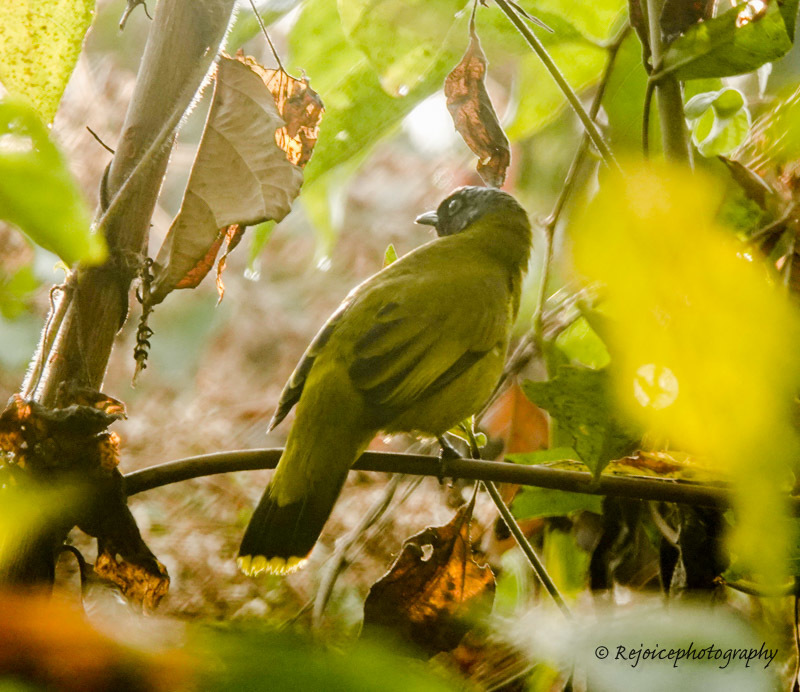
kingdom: Animalia
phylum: Chordata
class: Aves
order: Passeriformes
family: Pycnonotidae
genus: Microtarsus
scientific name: Microtarsus
